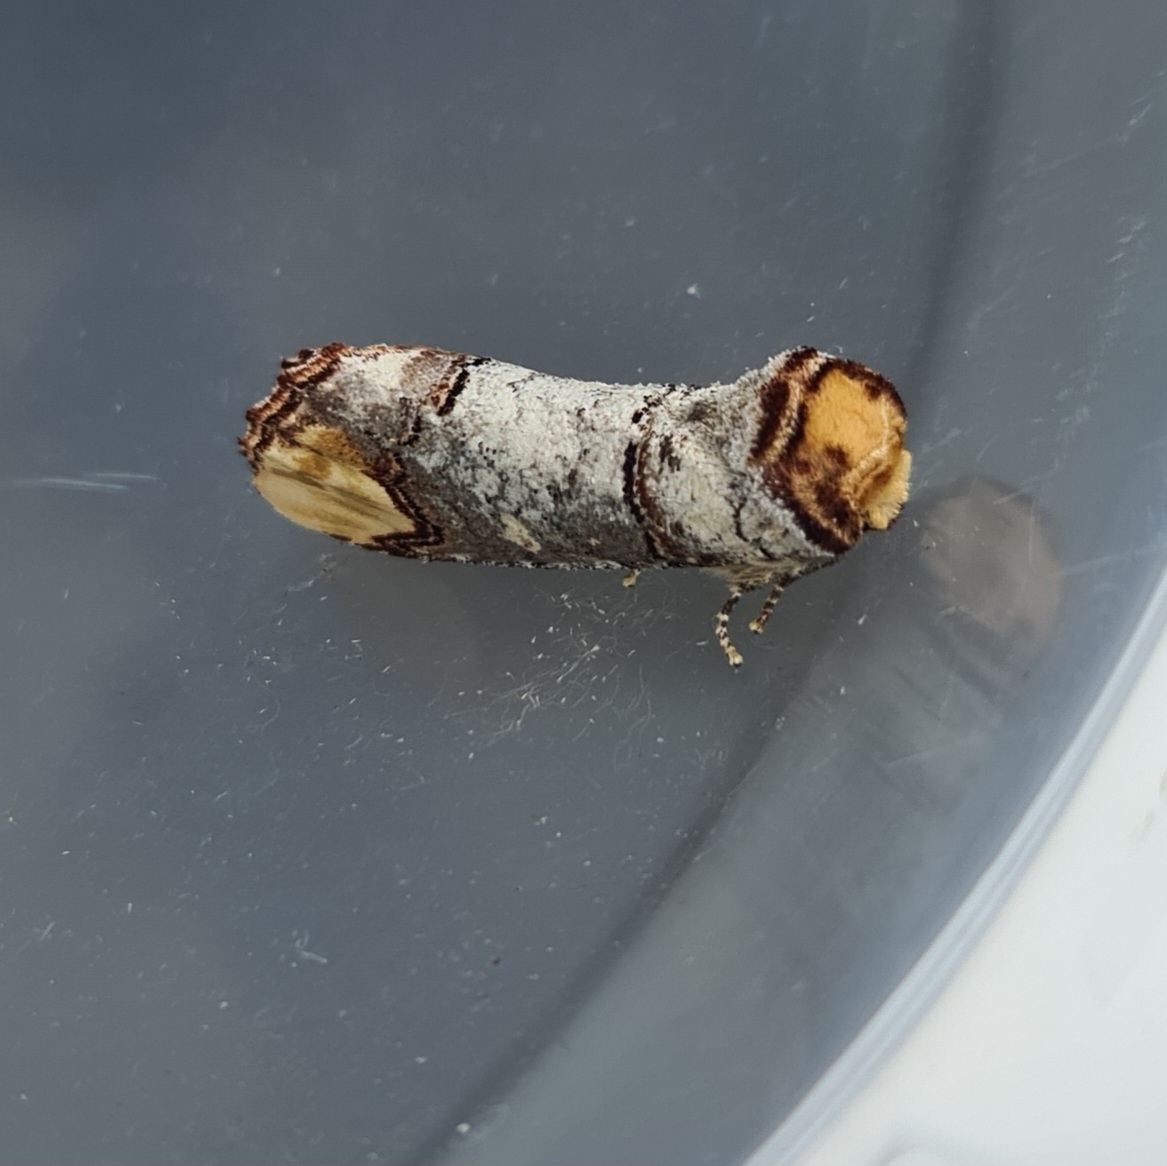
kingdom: Animalia
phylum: Arthropoda
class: Insecta
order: Lepidoptera
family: Notodontidae
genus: Phalera
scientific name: Phalera bucephala
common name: Buff-tip
